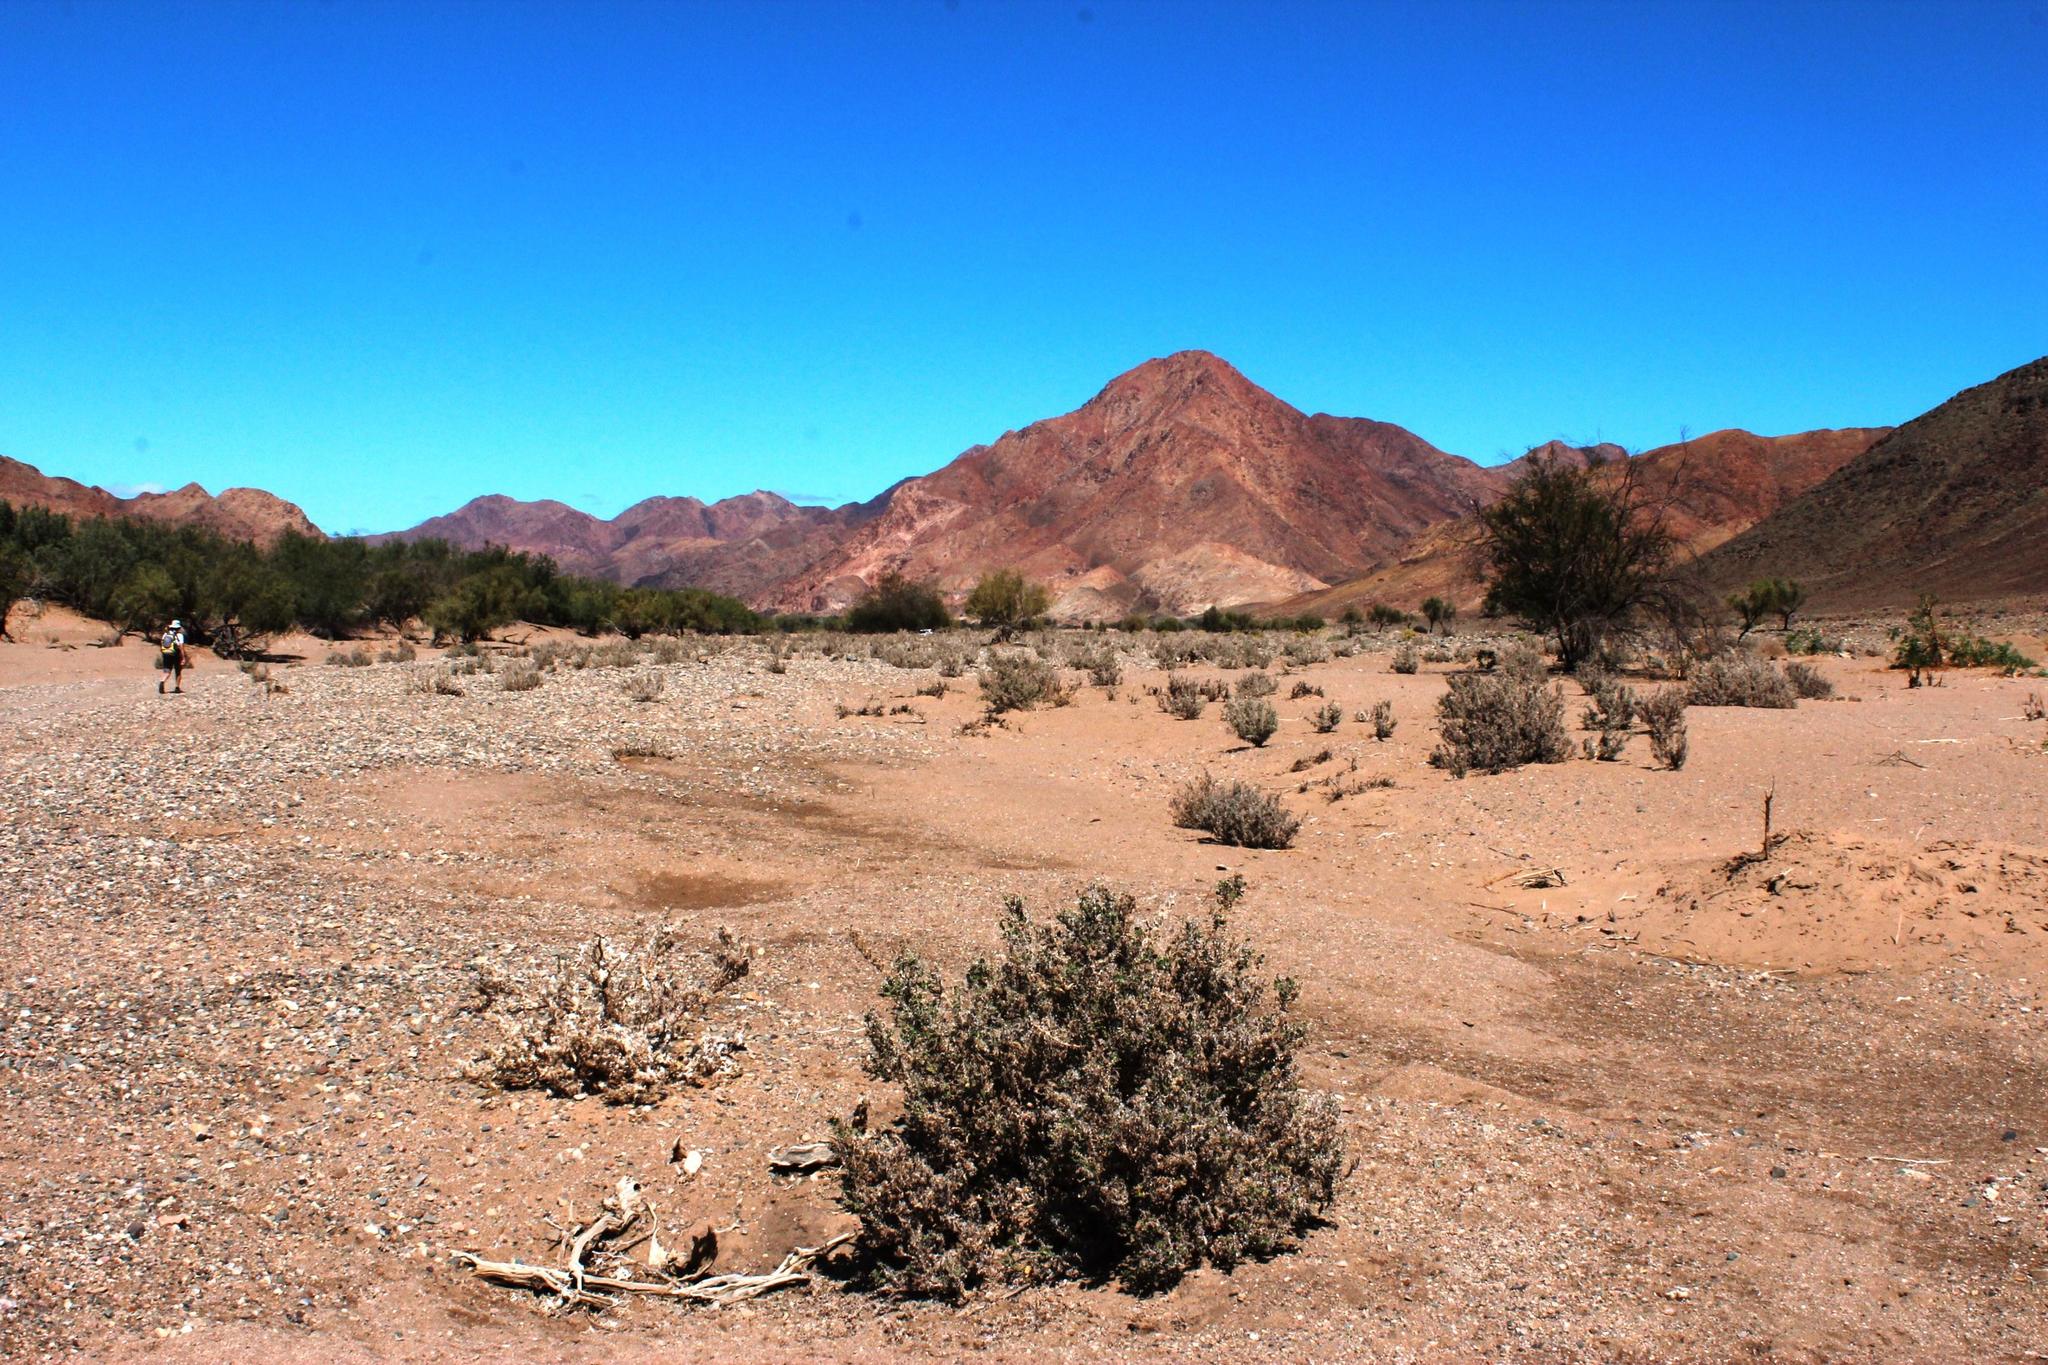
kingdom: Plantae
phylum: Tracheophyta
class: Magnoliopsida
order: Boraginales
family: Boraginaceae
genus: Codon
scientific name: Codon royenii
